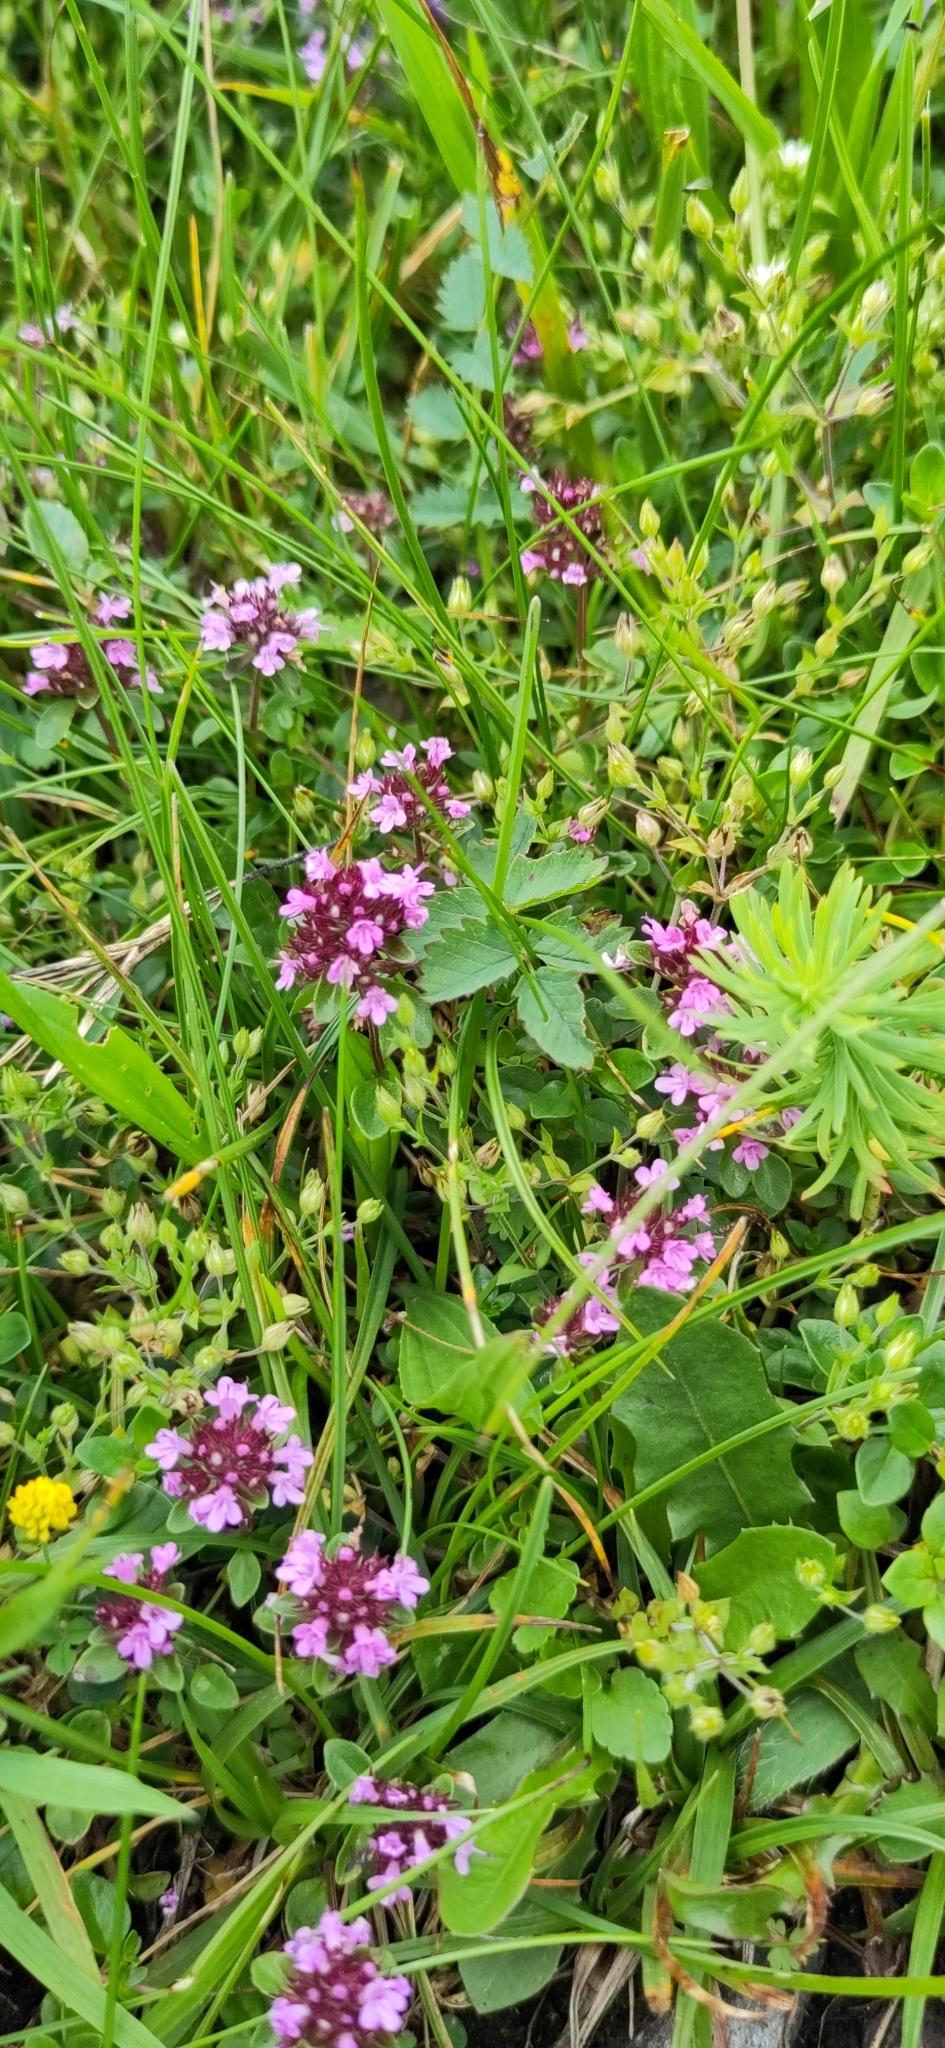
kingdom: Plantae
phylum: Tracheophyta
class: Magnoliopsida
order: Lamiales
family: Lamiaceae
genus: Thymus
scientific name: Thymus pulegioides
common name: Large thyme
